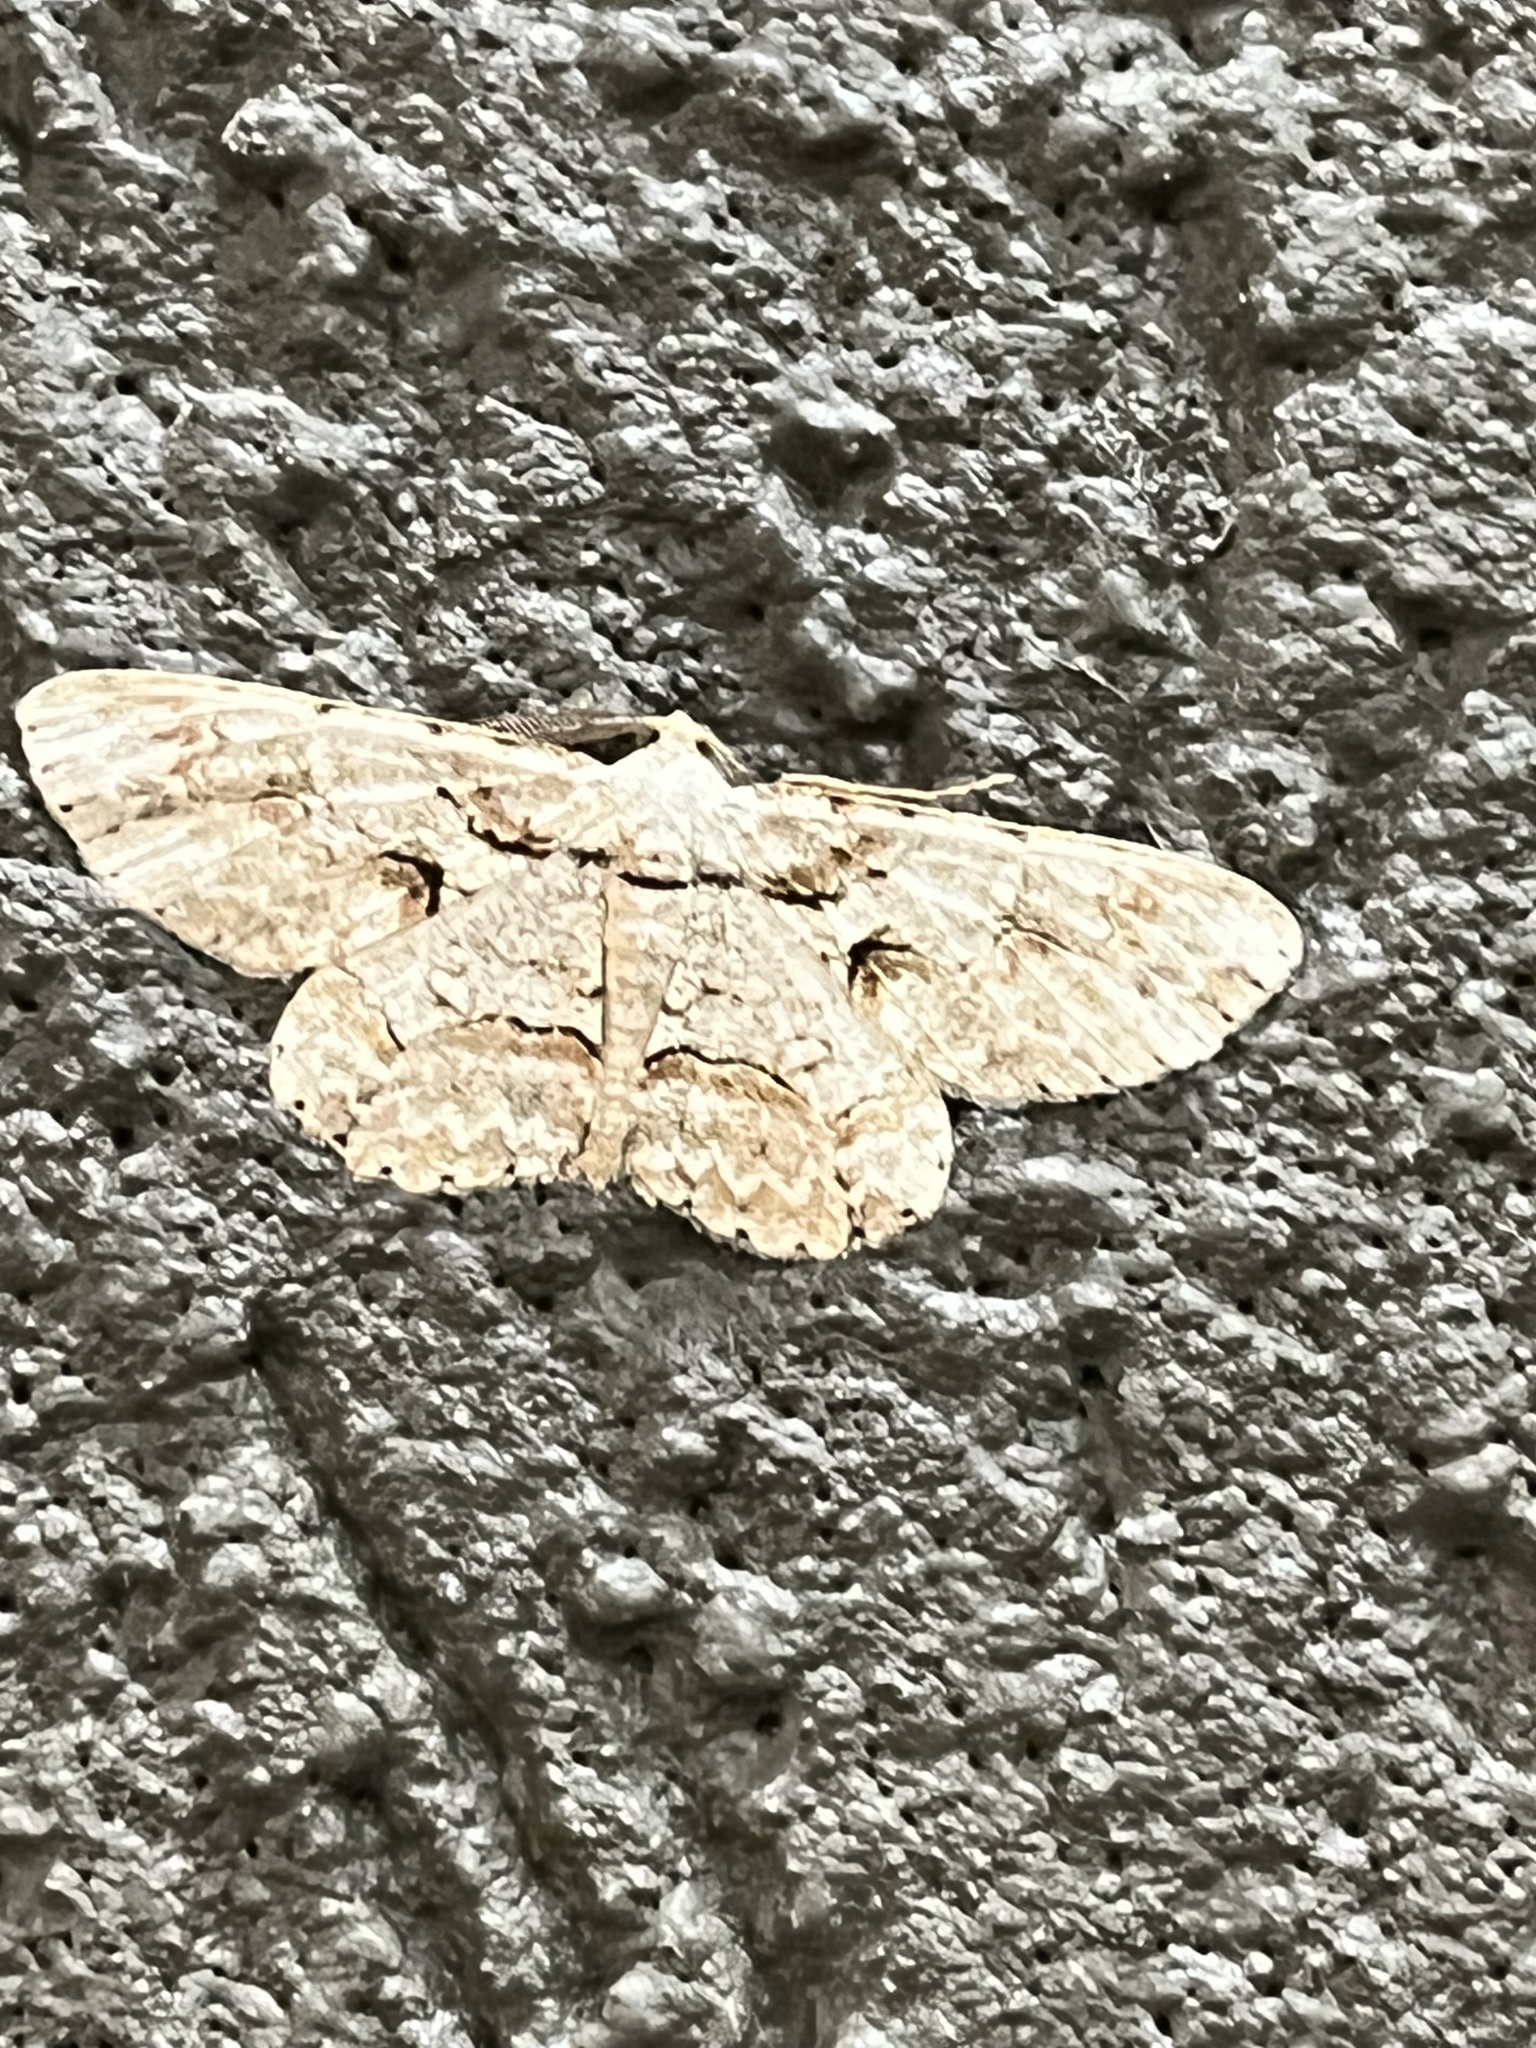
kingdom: Animalia
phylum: Arthropoda
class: Insecta
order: Lepidoptera
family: Geometridae
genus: Iridopsis
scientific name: Iridopsis defectaria
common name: Brown-shaded gray
